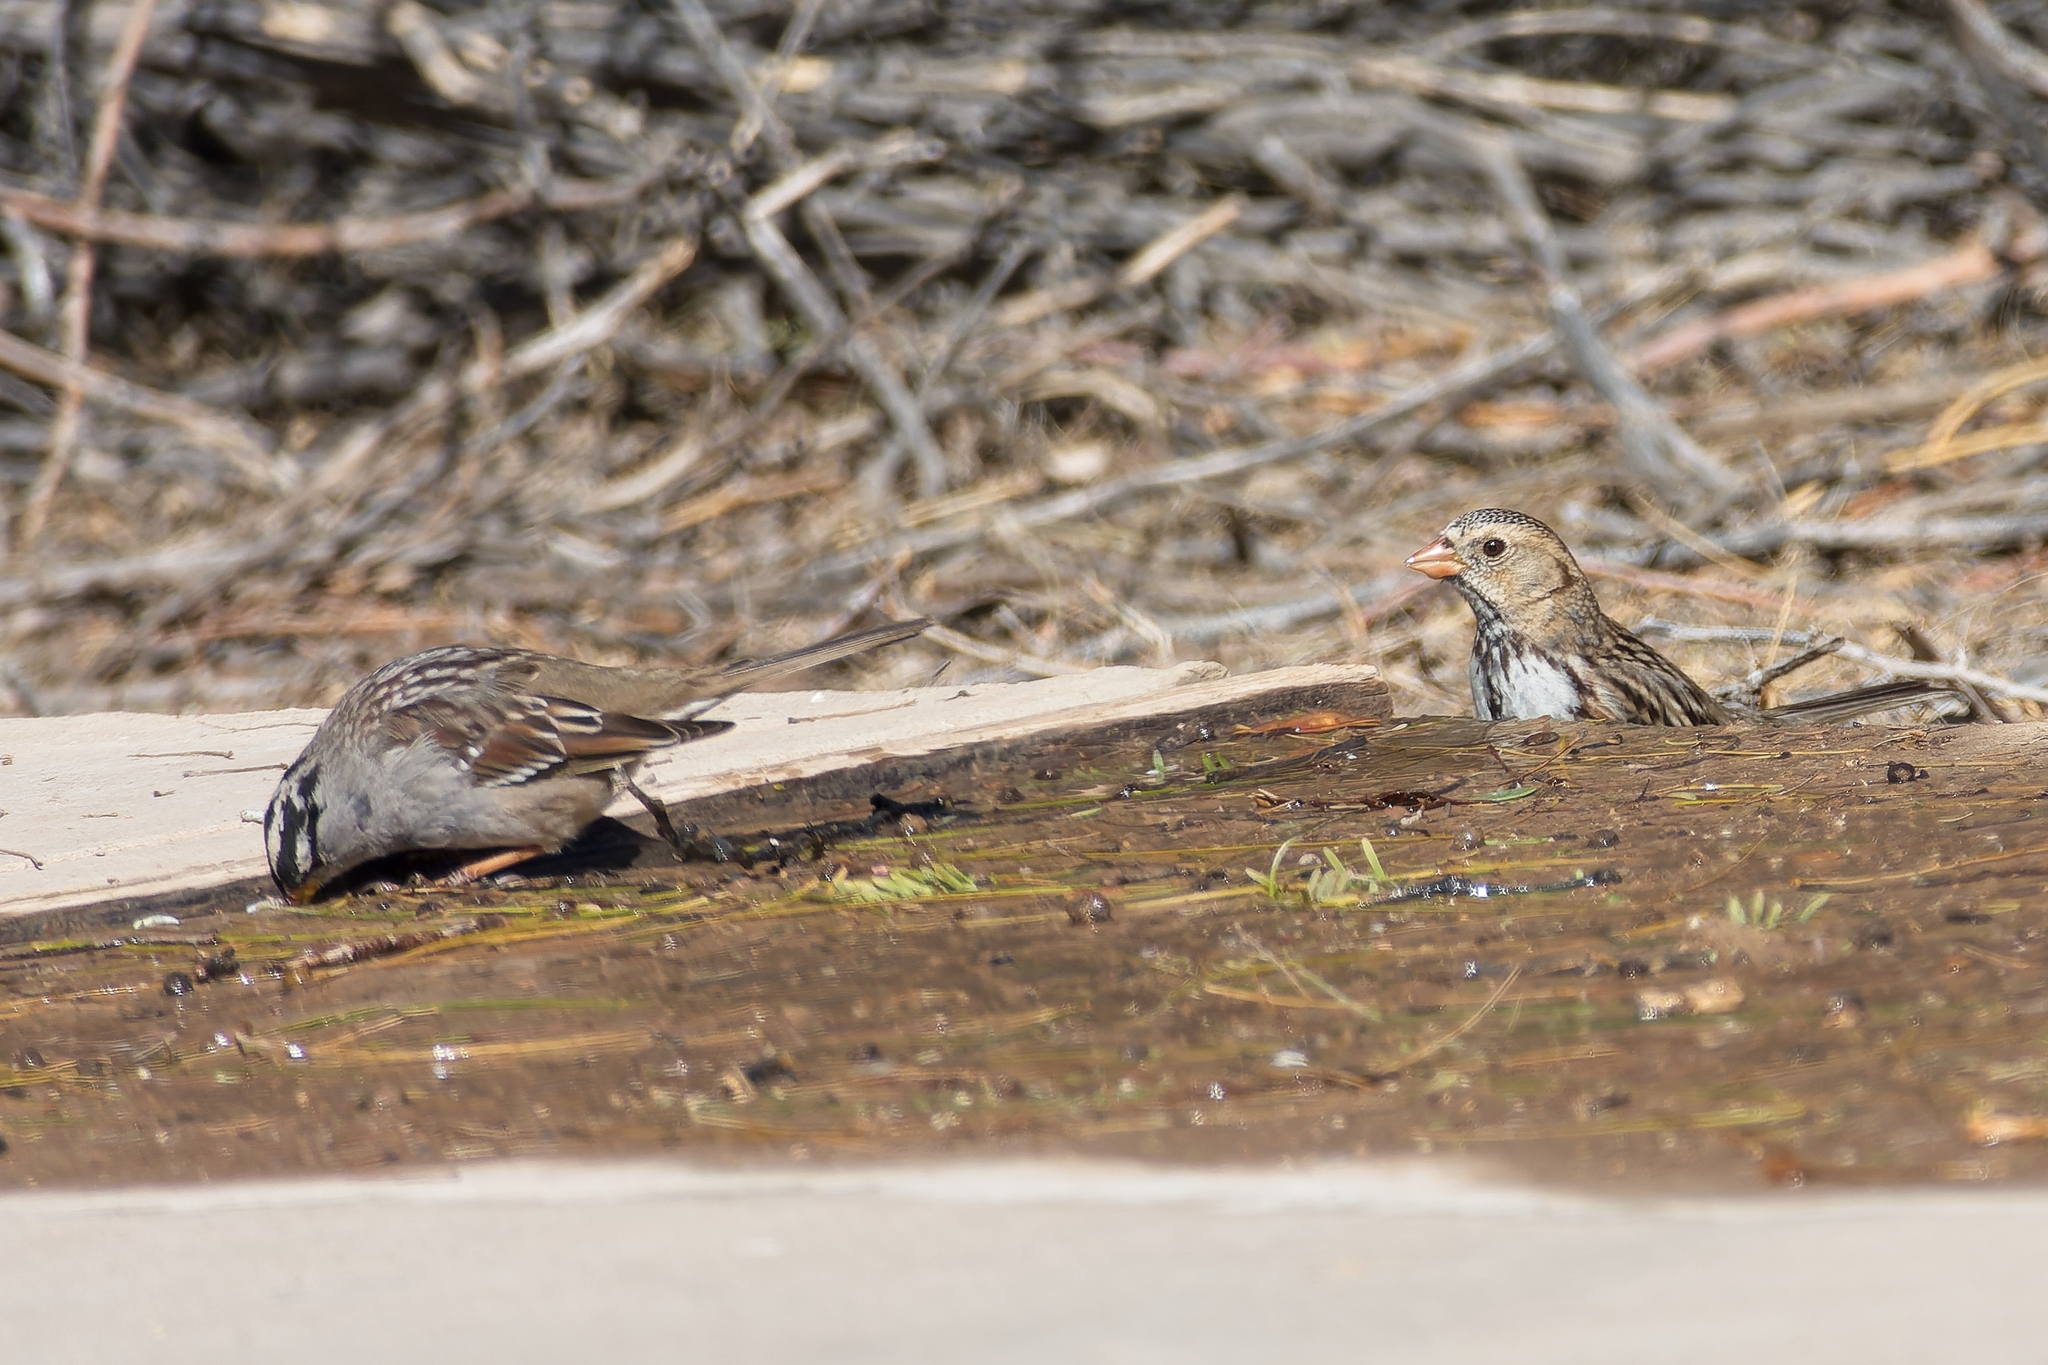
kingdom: Animalia
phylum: Chordata
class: Aves
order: Passeriformes
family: Passerellidae
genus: Zonotrichia
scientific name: Zonotrichia leucophrys
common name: White-crowned sparrow
